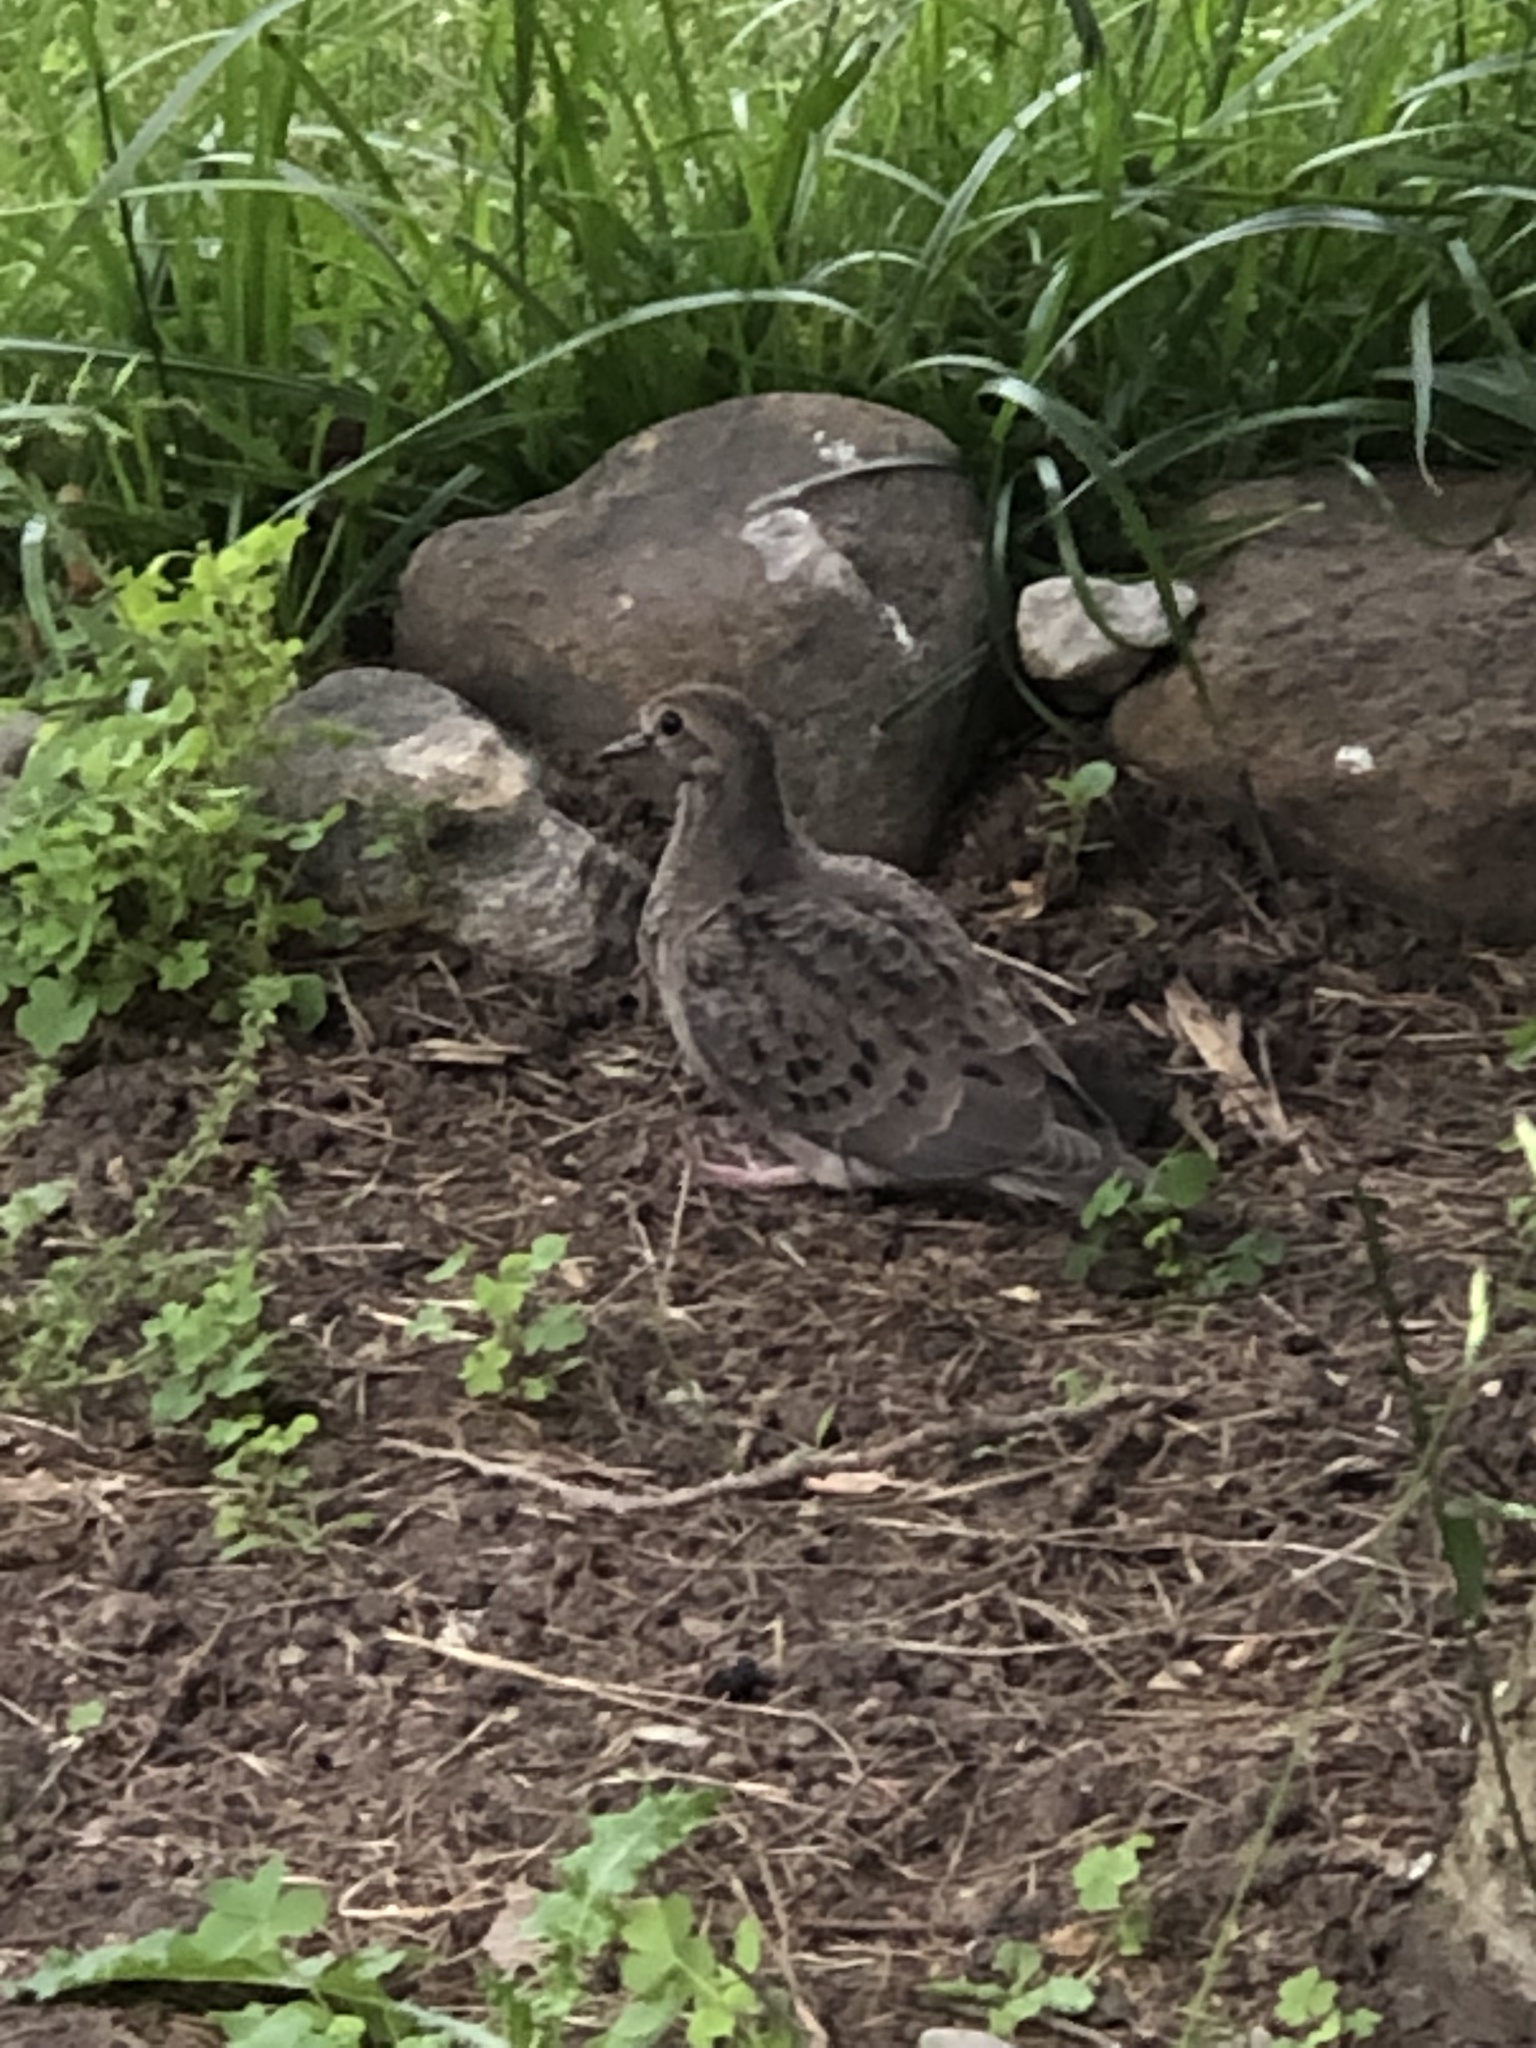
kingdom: Animalia
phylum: Chordata
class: Aves
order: Columbiformes
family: Columbidae
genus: Zenaida
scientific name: Zenaida macroura
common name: Mourning dove
